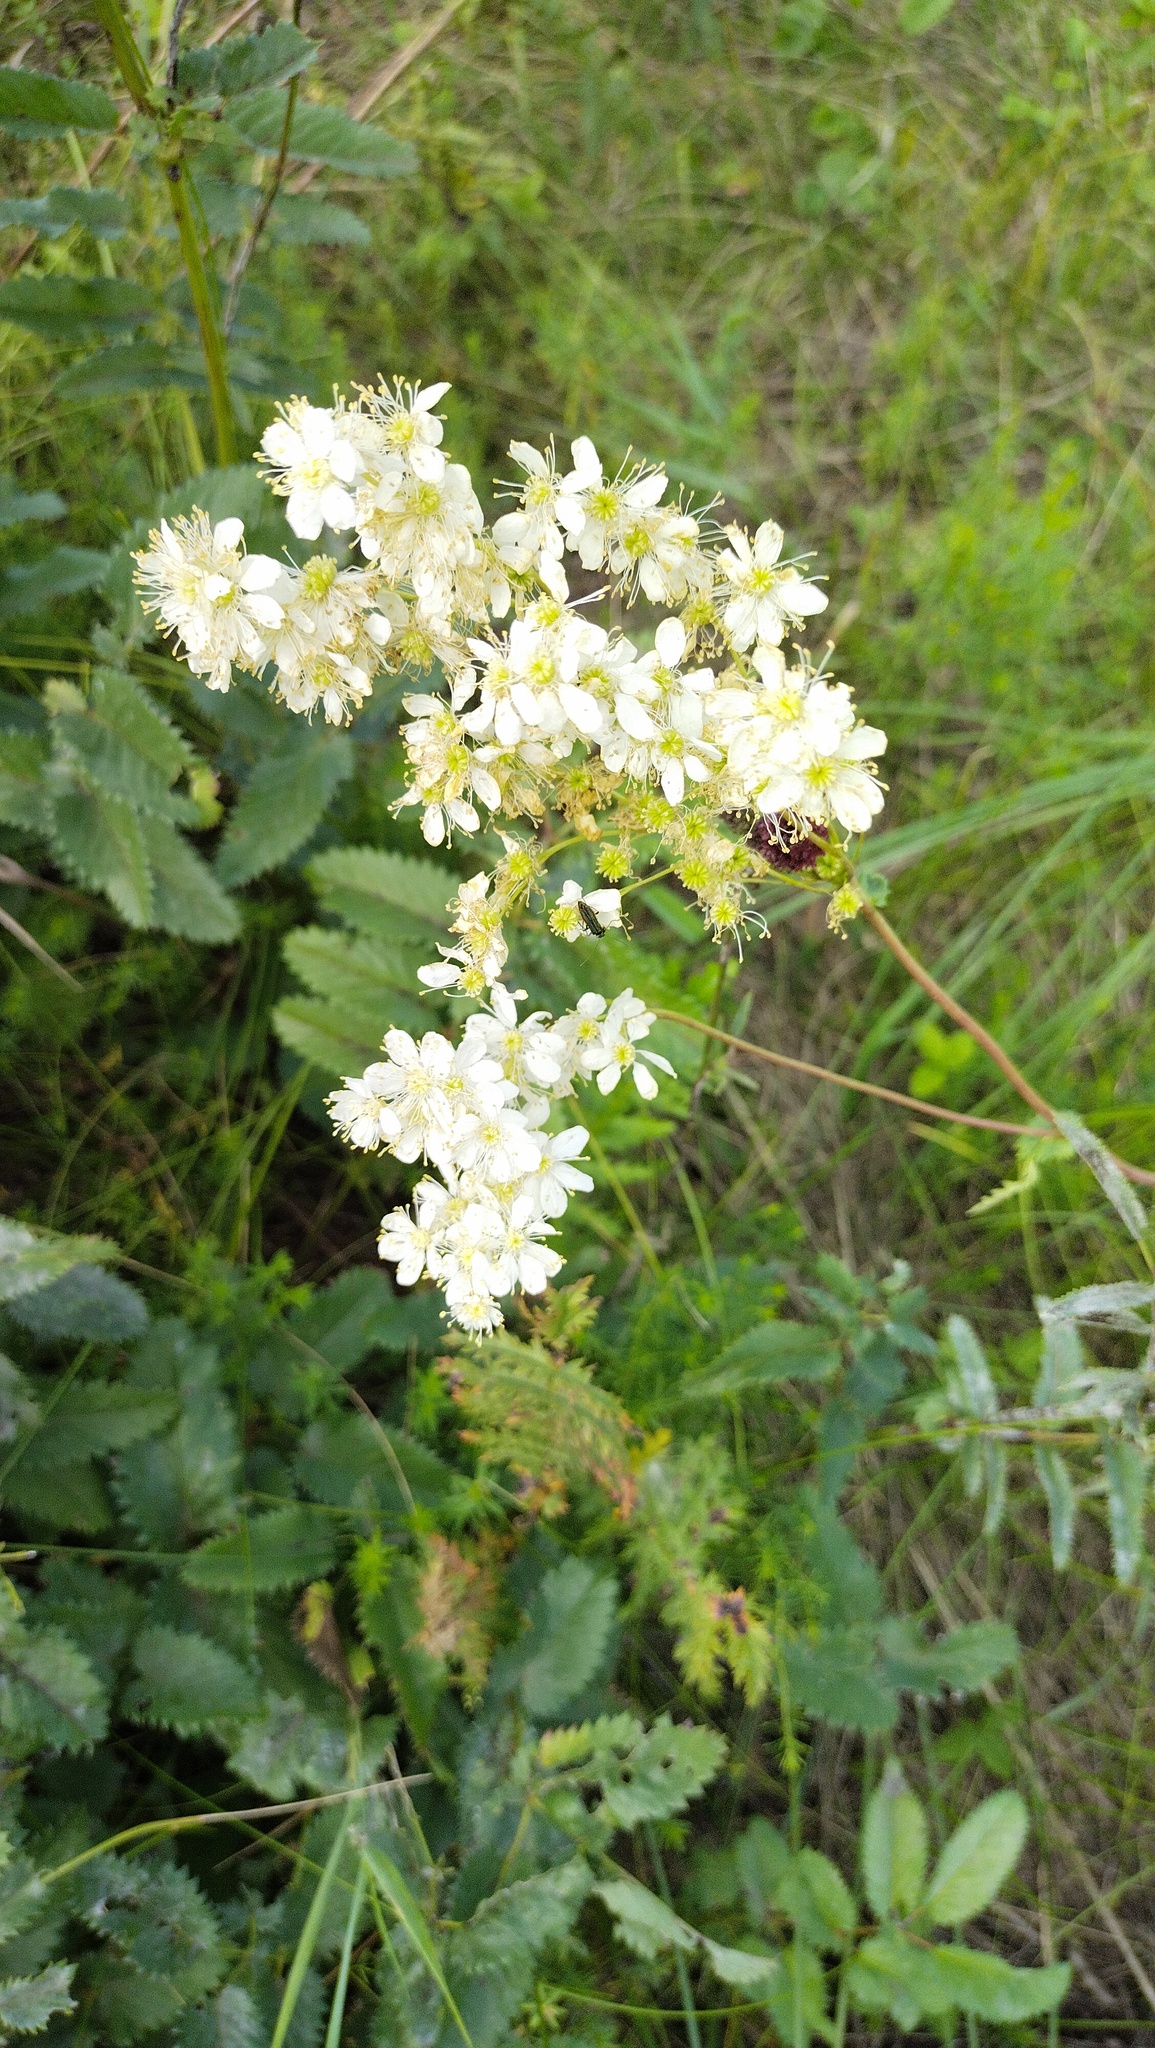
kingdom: Plantae
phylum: Tracheophyta
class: Magnoliopsida
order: Rosales
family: Rosaceae
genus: Filipendula
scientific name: Filipendula vulgaris
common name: Dropwort
